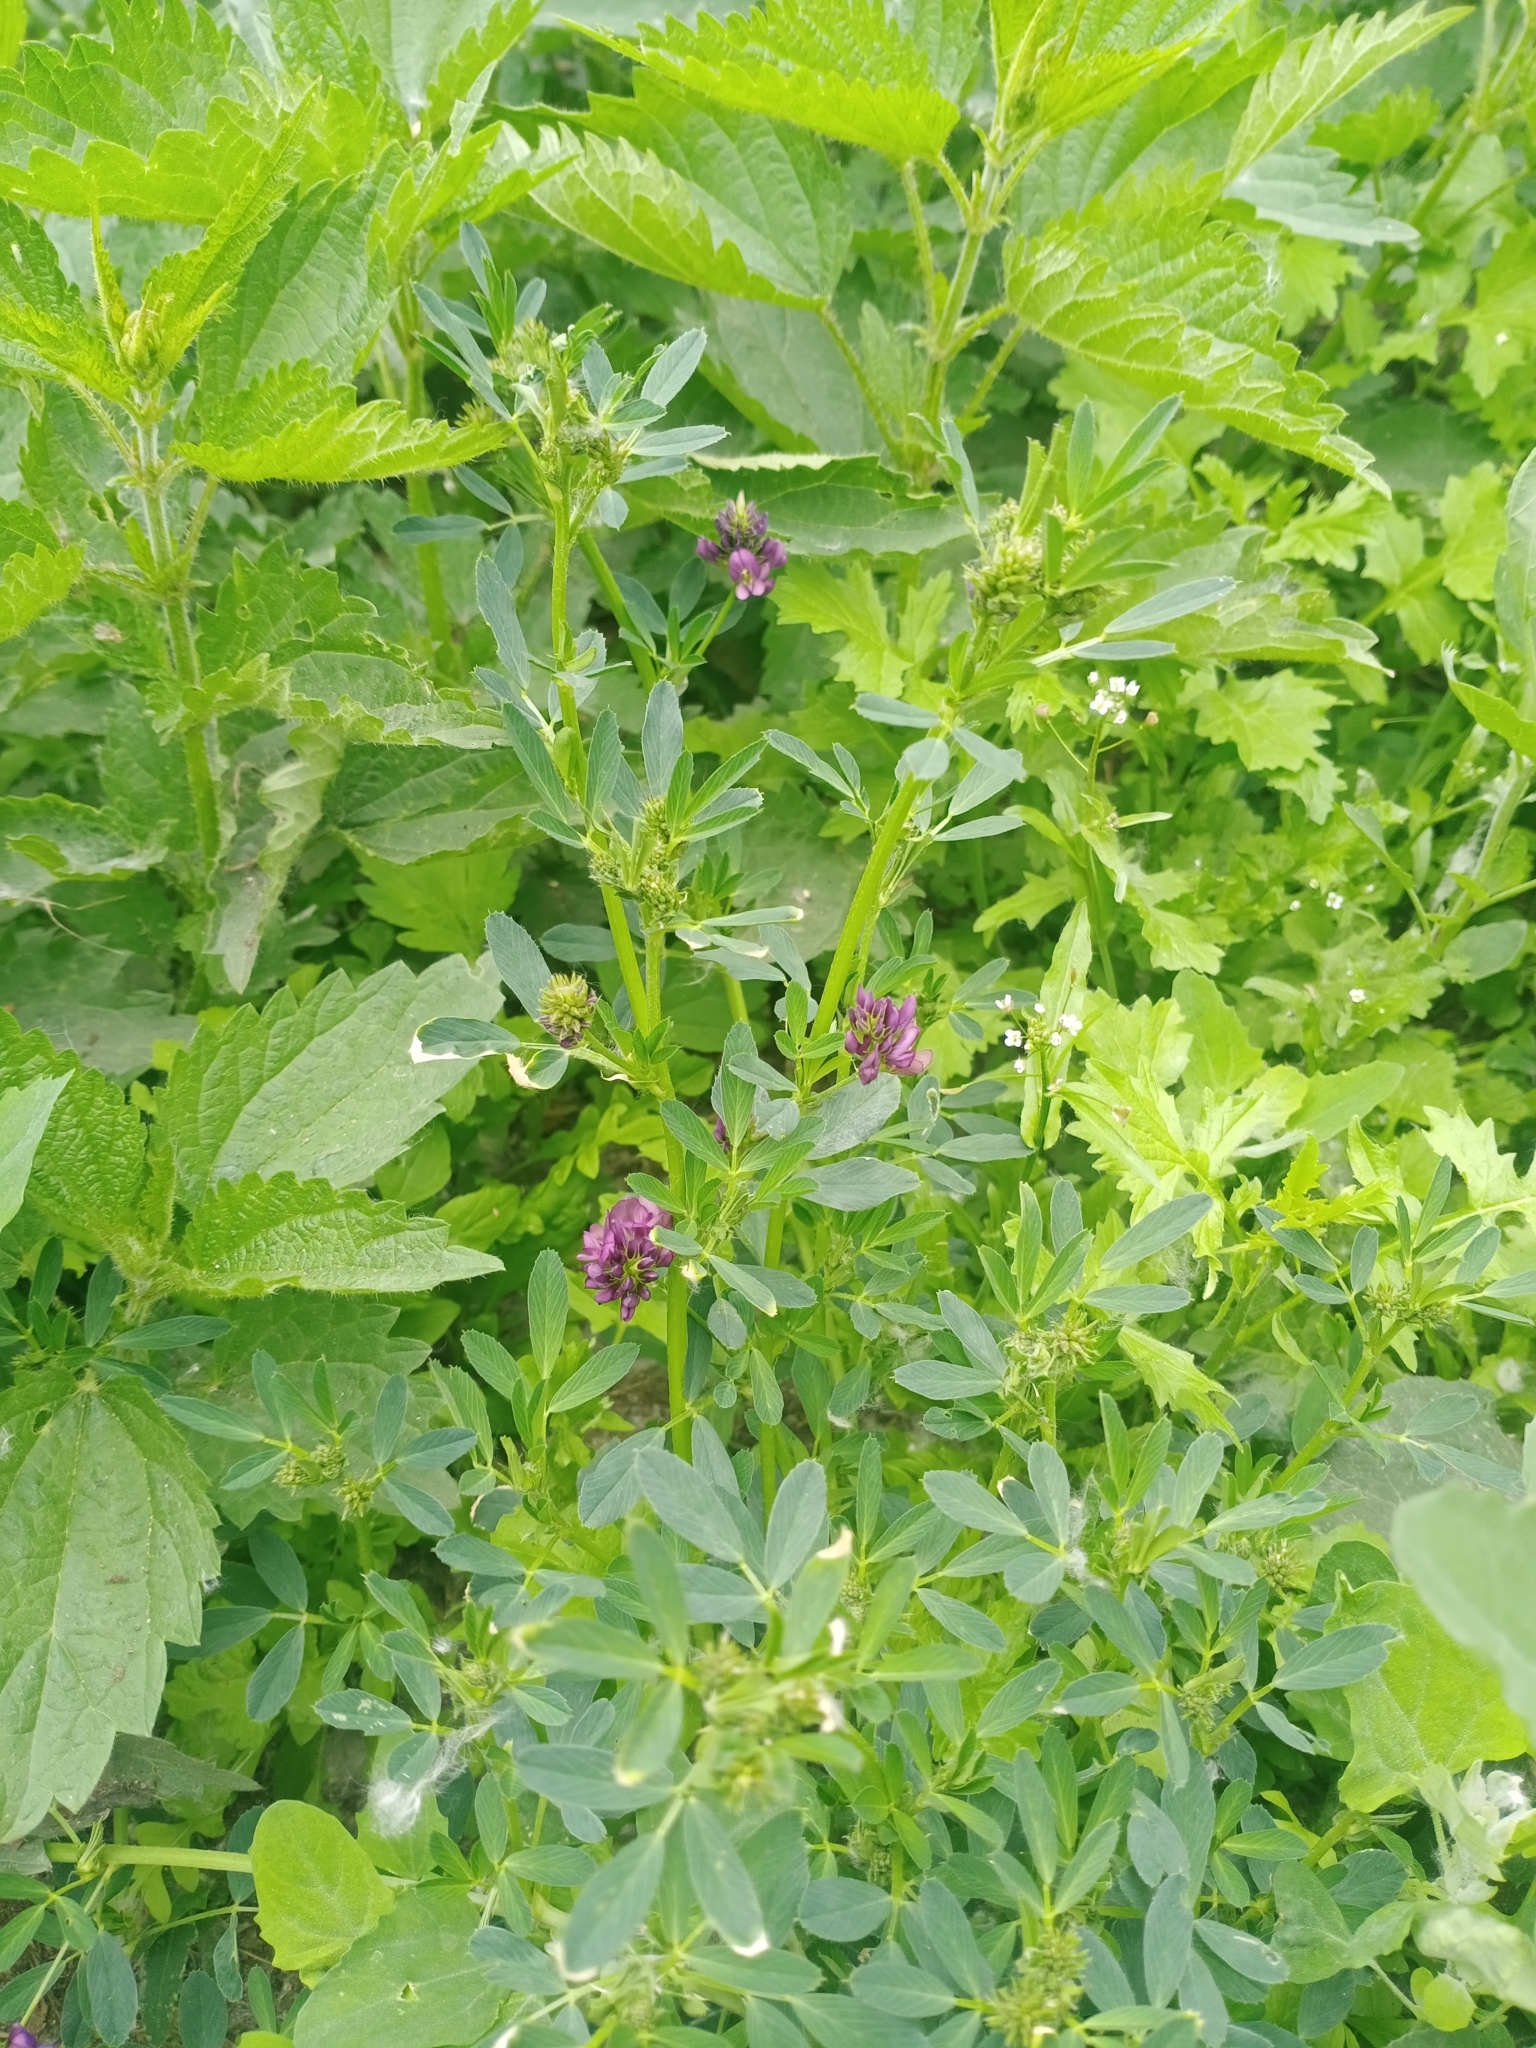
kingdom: Plantae
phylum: Tracheophyta
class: Magnoliopsida
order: Fabales
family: Fabaceae
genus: Medicago
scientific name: Medicago varia
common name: Sand lucerne
